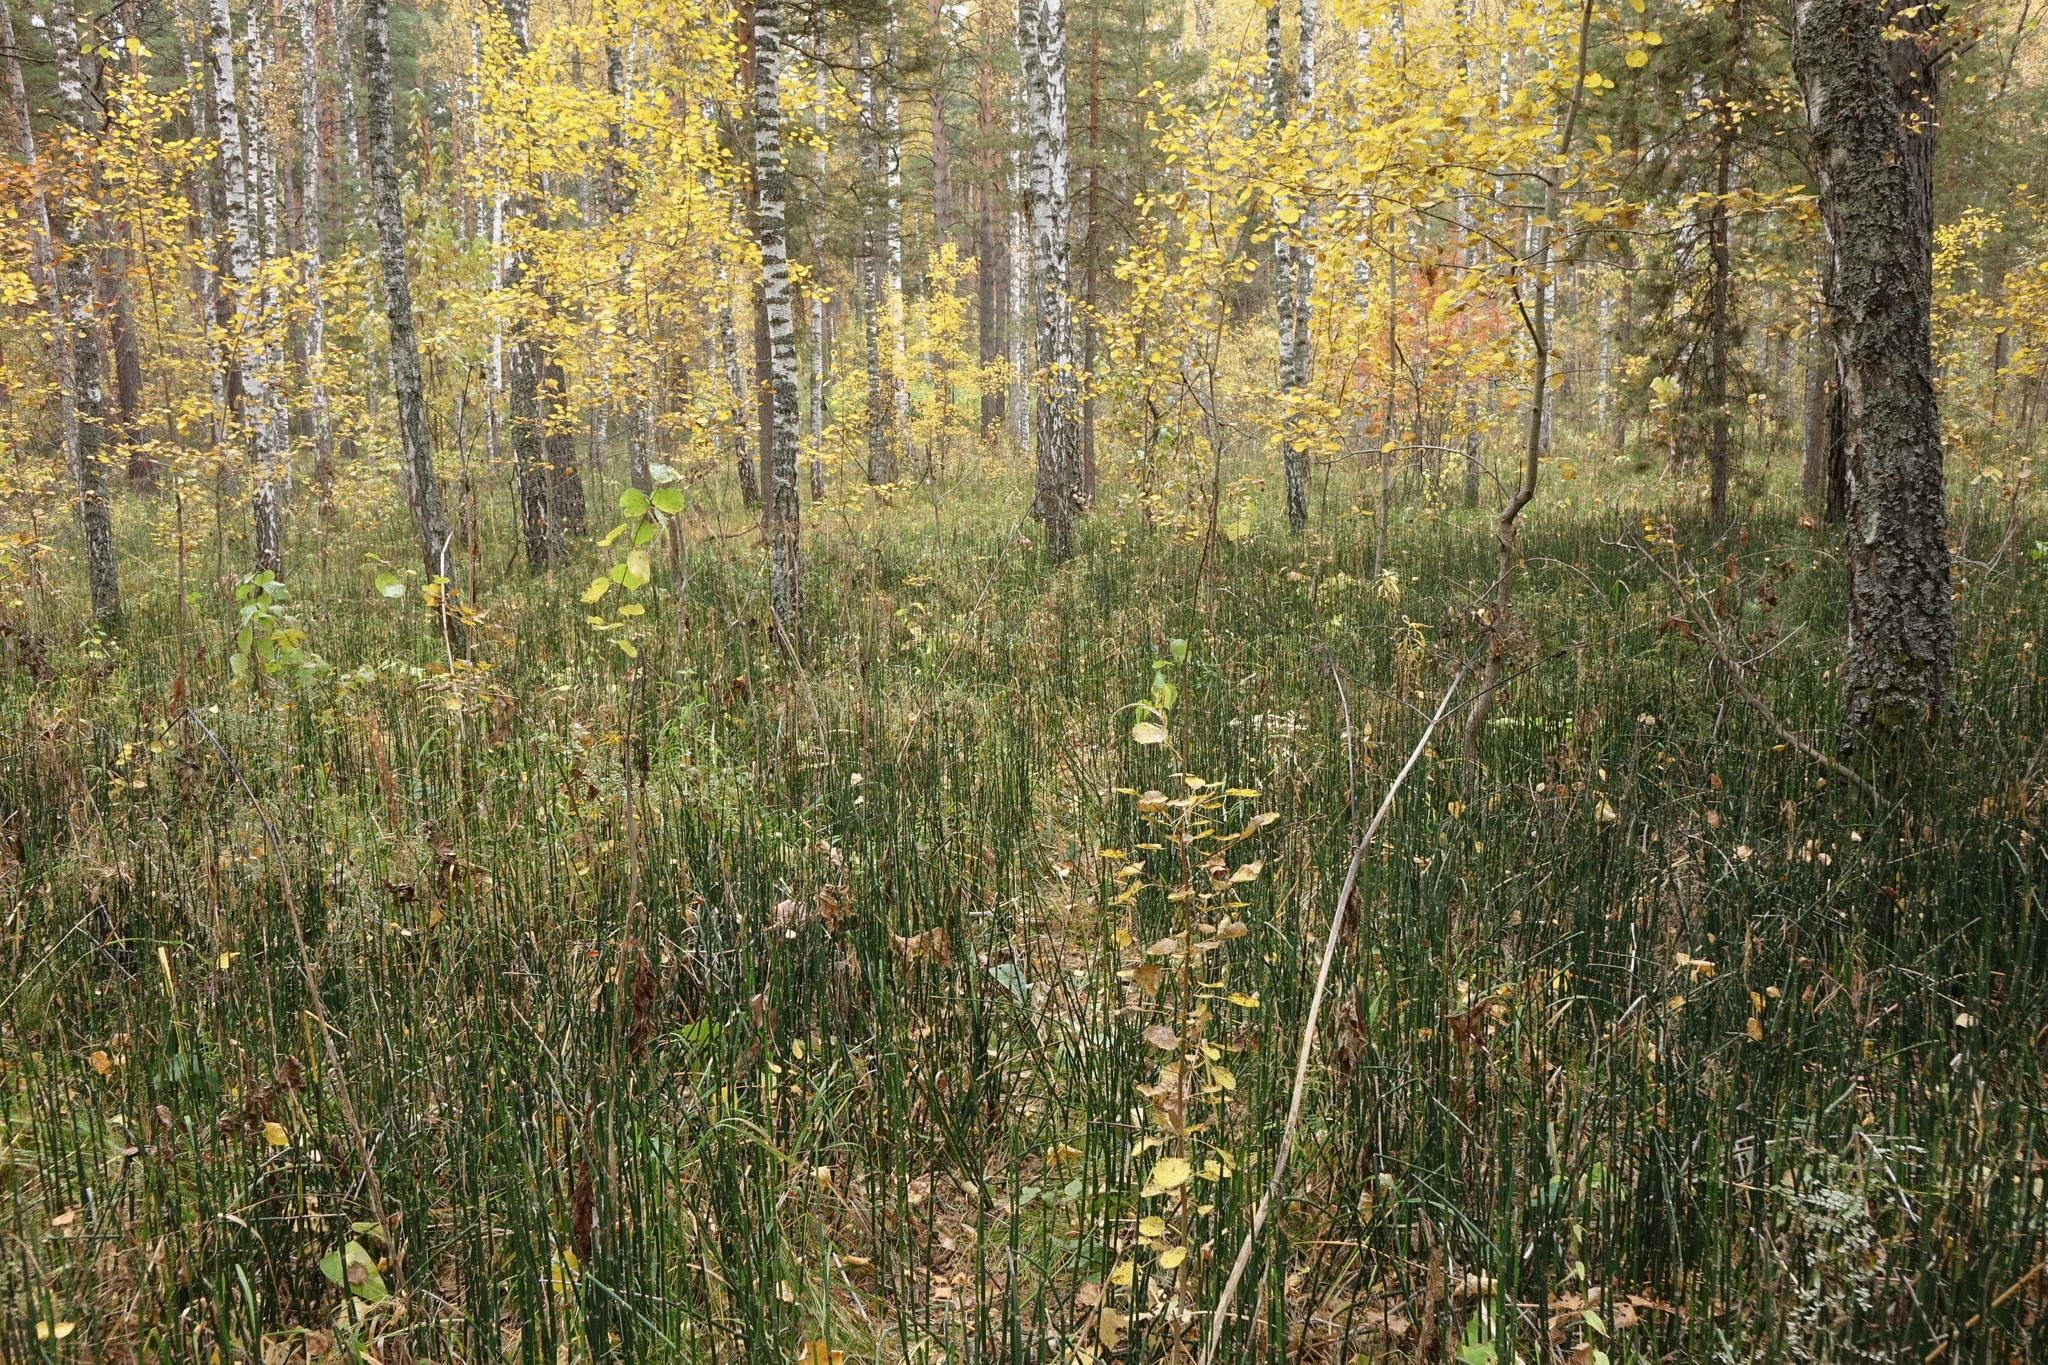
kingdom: Plantae
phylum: Tracheophyta
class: Polypodiopsida
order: Equisetales
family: Equisetaceae
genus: Equisetum
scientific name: Equisetum hyemale
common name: Rough horsetail
